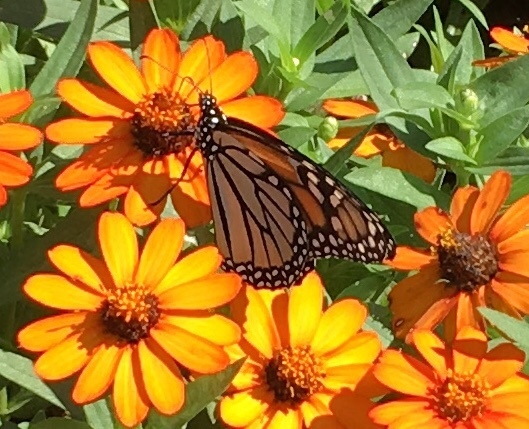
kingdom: Animalia
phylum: Arthropoda
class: Insecta
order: Lepidoptera
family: Nymphalidae
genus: Danaus
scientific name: Danaus plexippus
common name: Monarch
